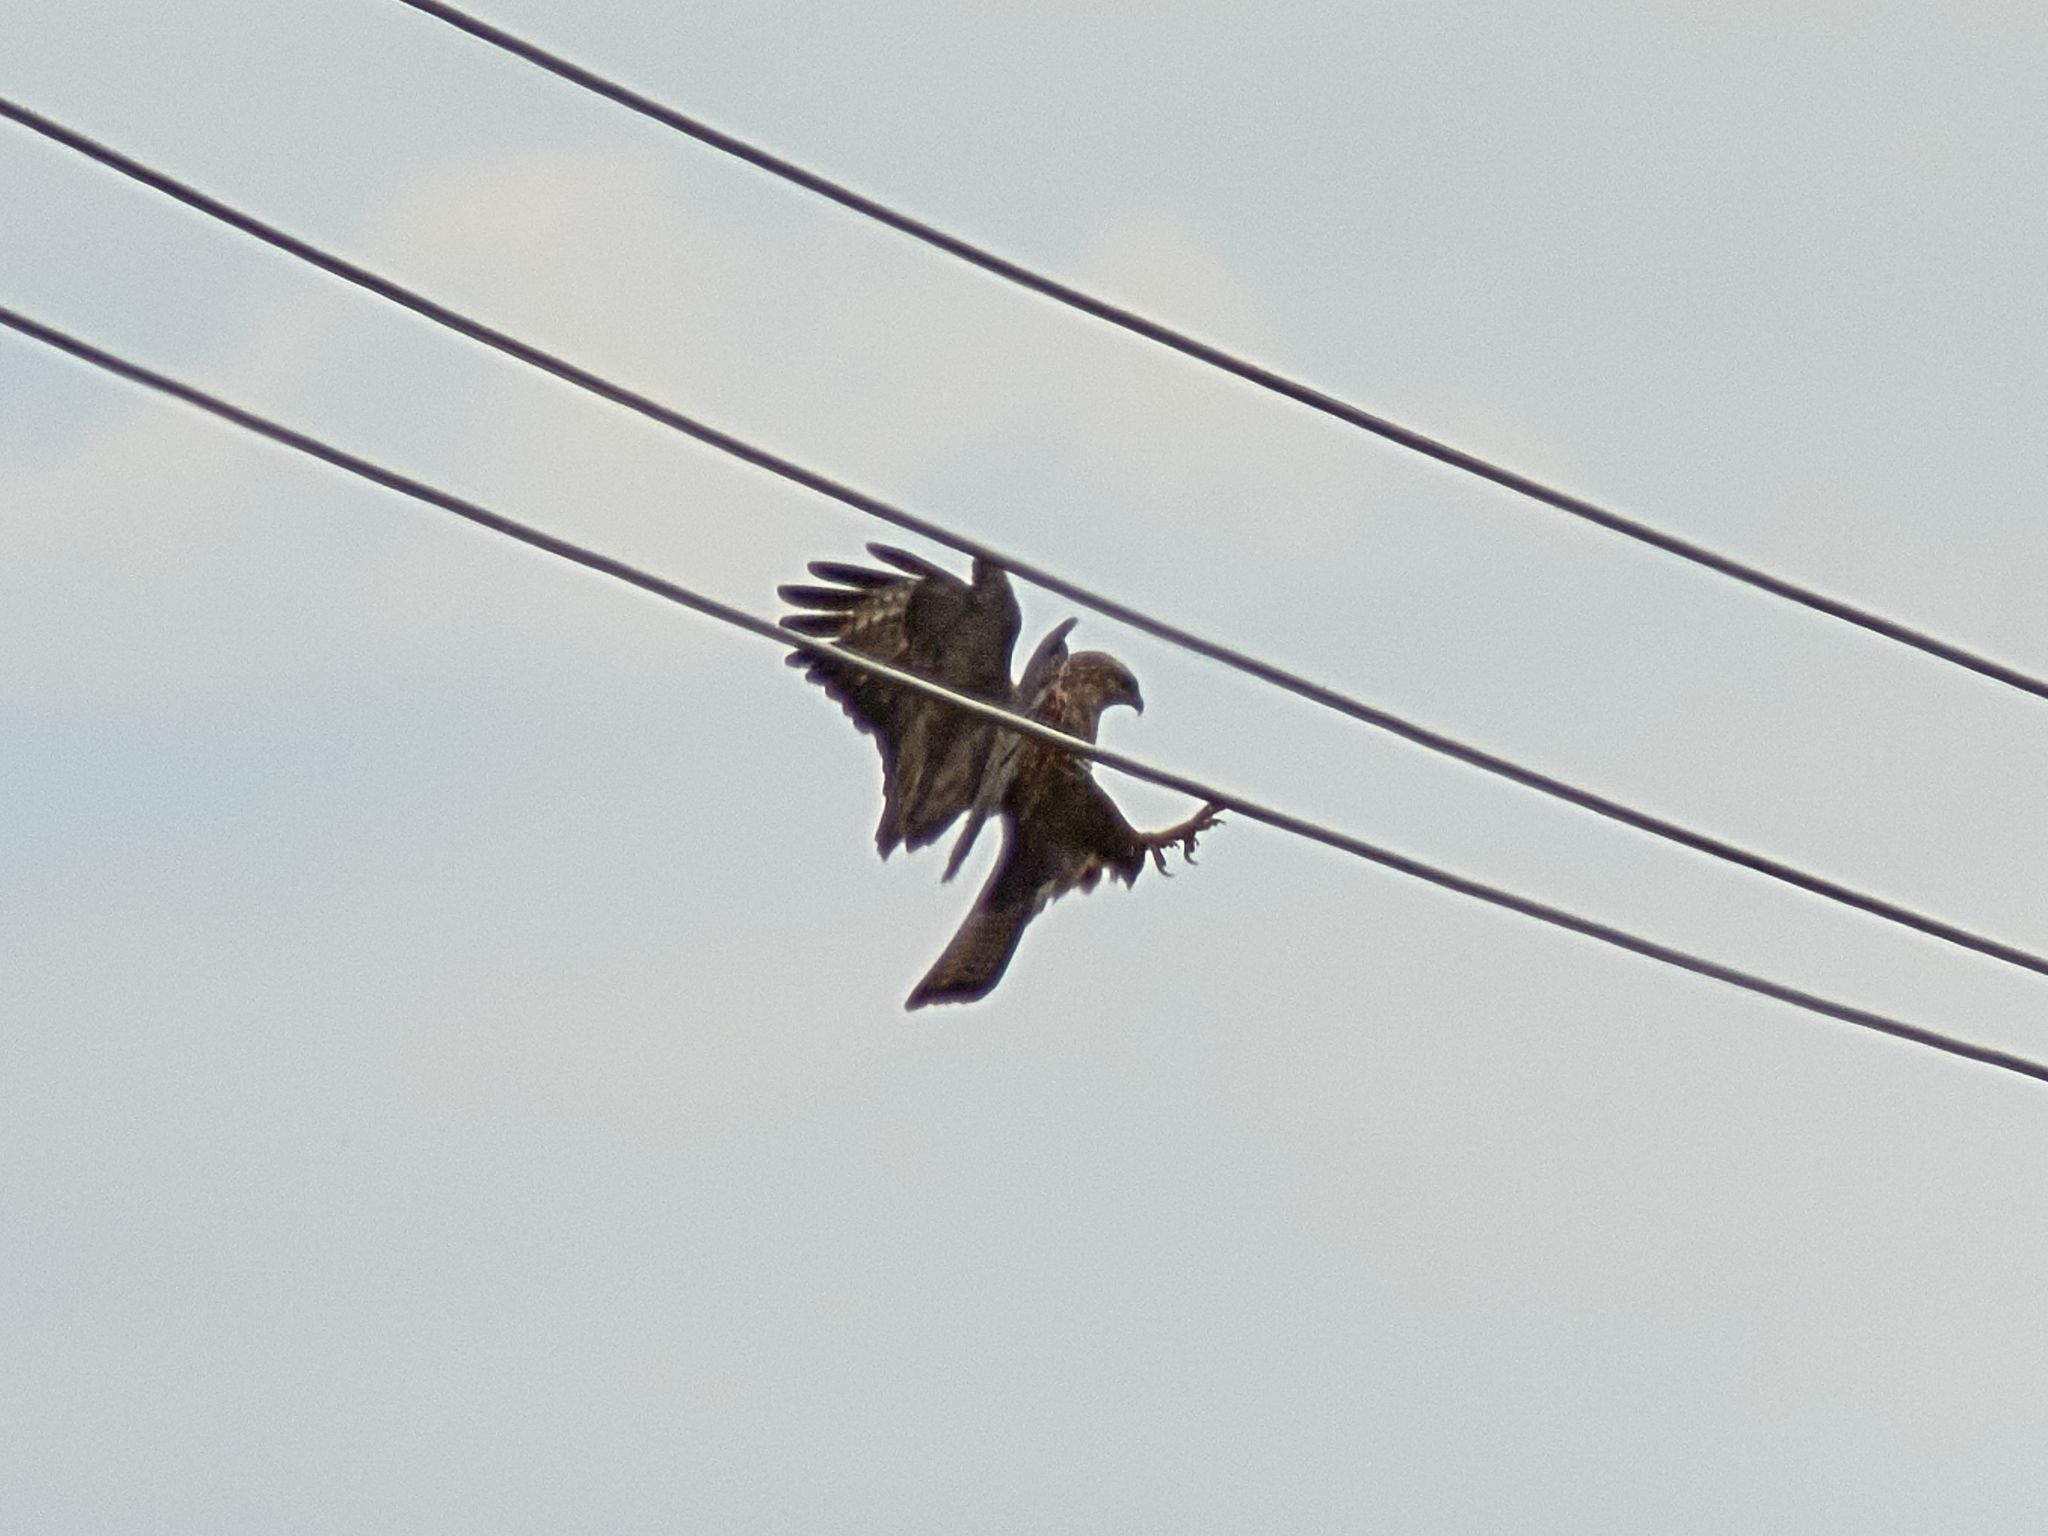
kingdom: Animalia
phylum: Chordata
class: Aves
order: Accipitriformes
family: Accipitridae
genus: Buteo
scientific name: Buteo buteo
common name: Common buzzard
